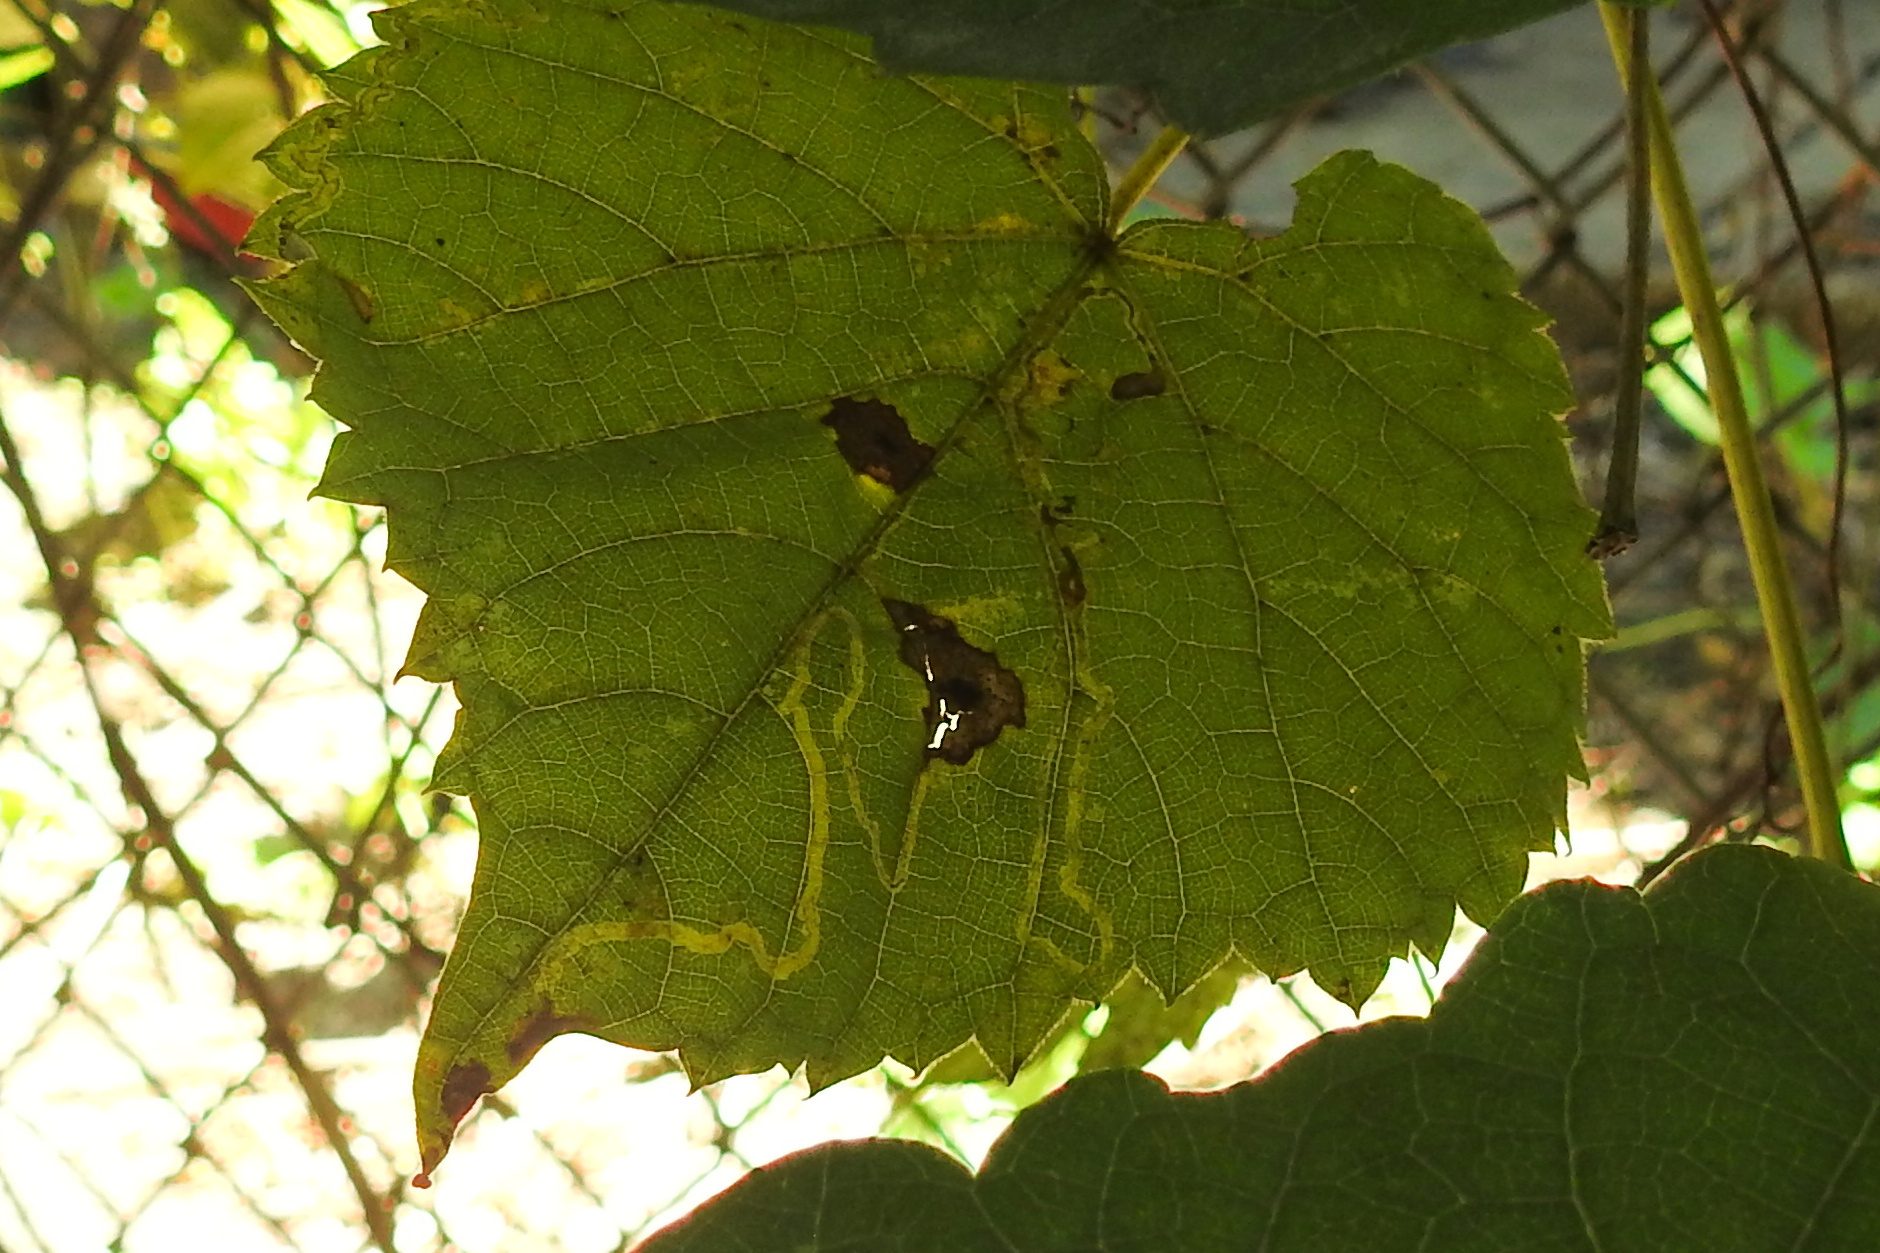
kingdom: Animalia
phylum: Arthropoda
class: Insecta
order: Lepidoptera
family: Gracillariidae
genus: Phyllocnistis
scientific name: Phyllocnistis vitifoliella
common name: Grape leaf-miner moth
